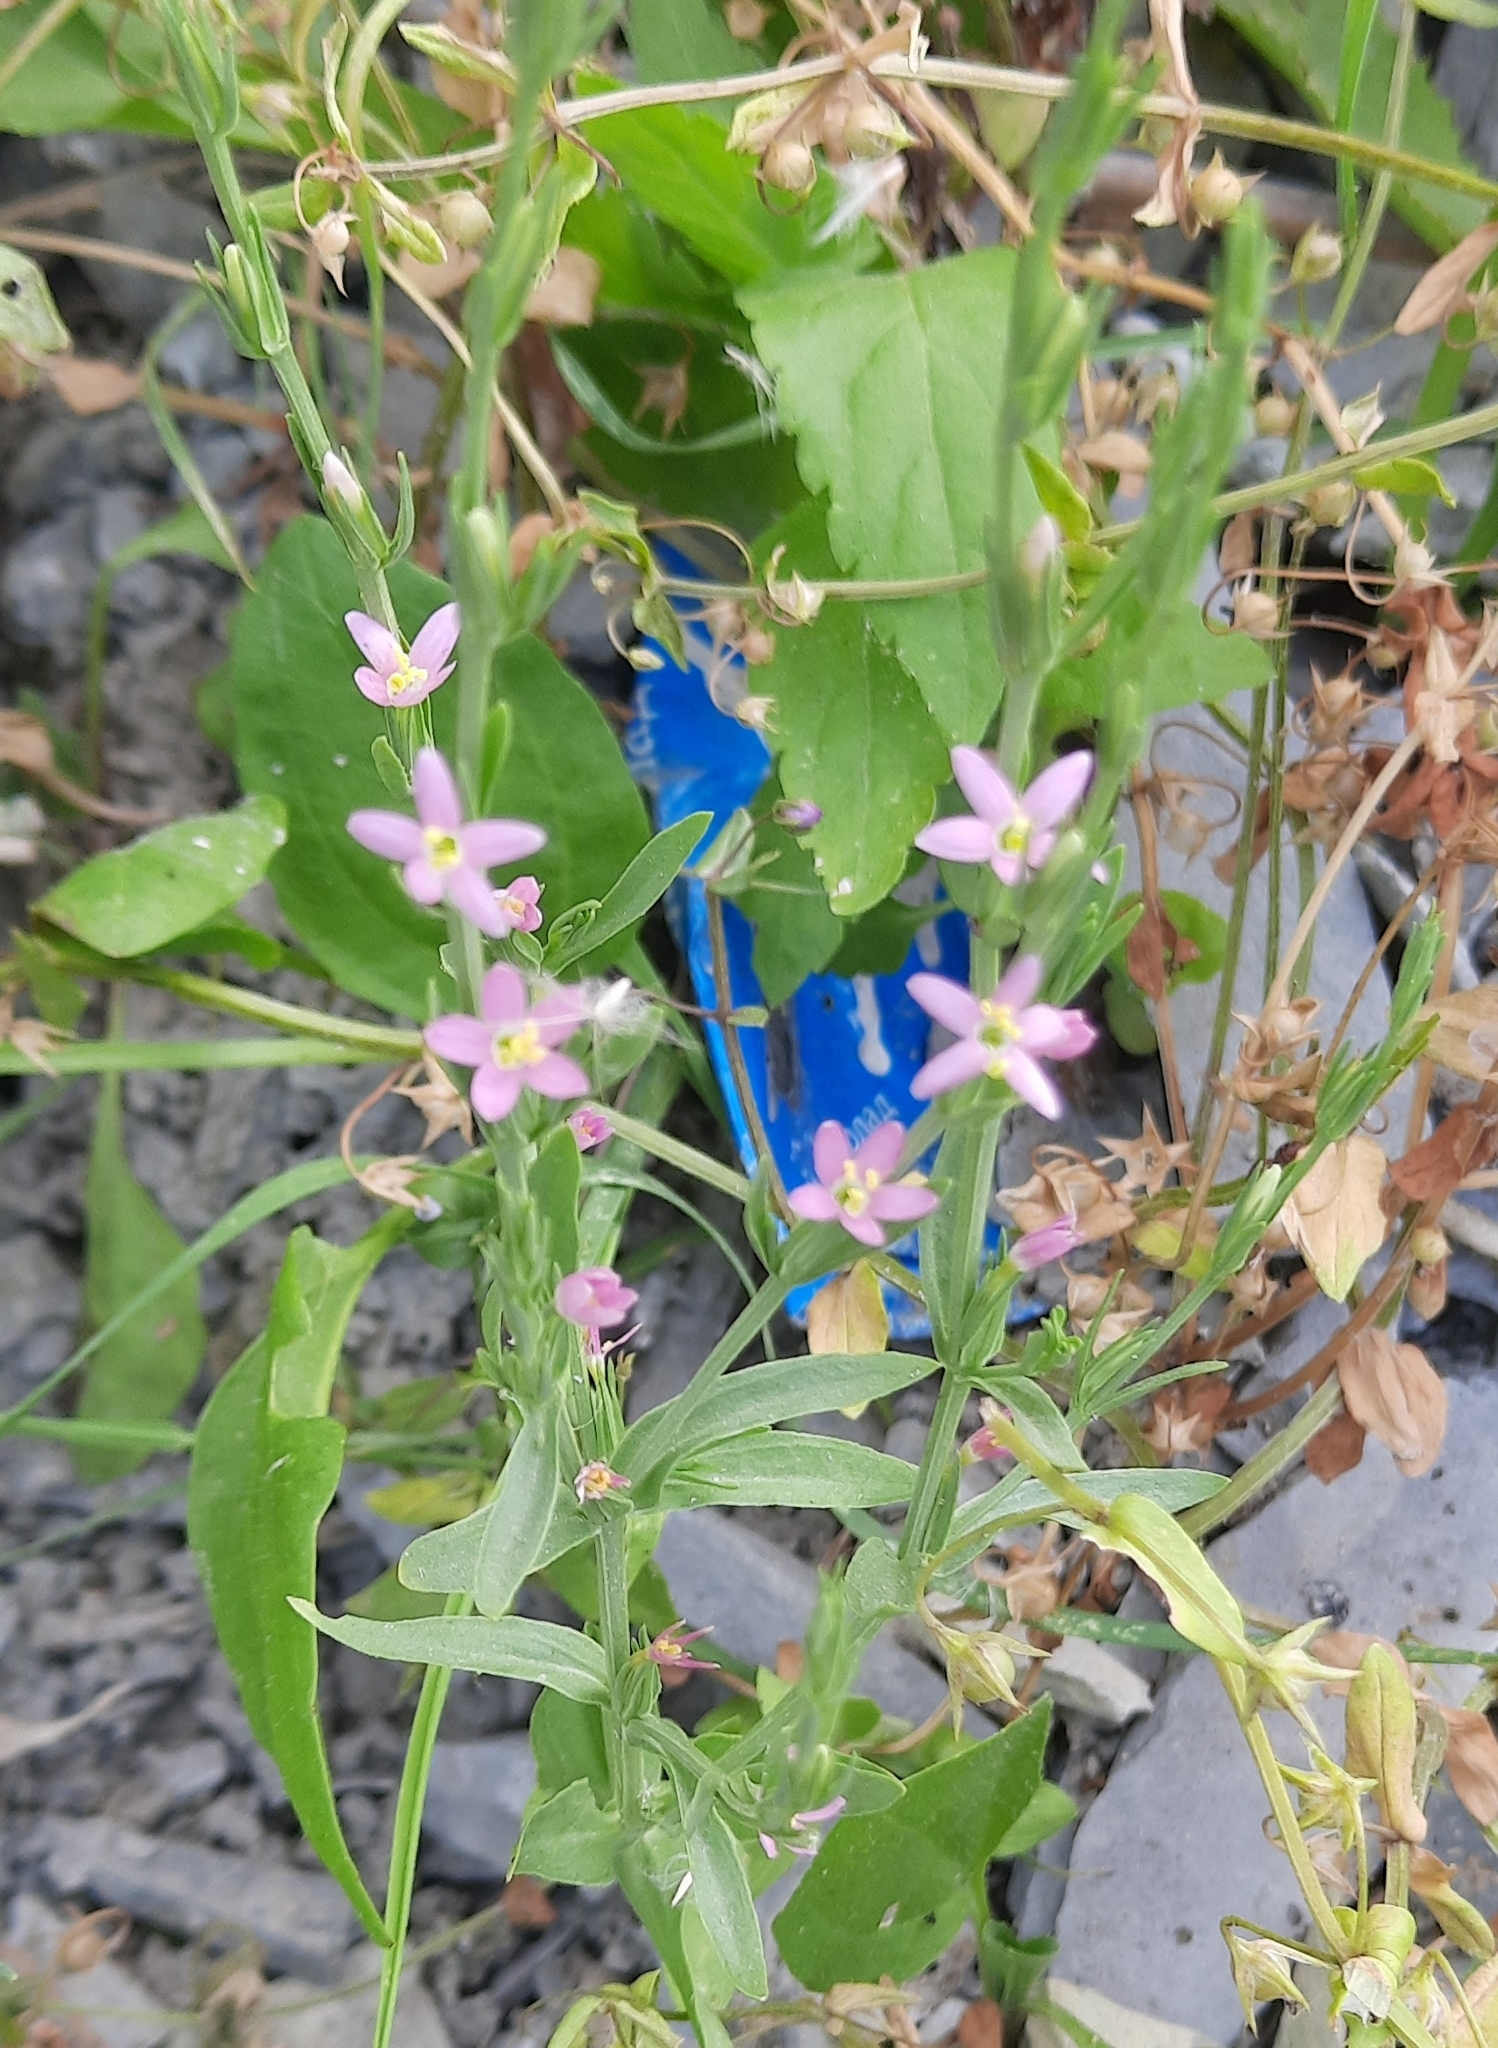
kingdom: Plantae
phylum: Tracheophyta
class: Magnoliopsida
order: Gentianales
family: Gentianaceae
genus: Schenkia
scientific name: Schenkia spicata
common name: Spiked centaury
